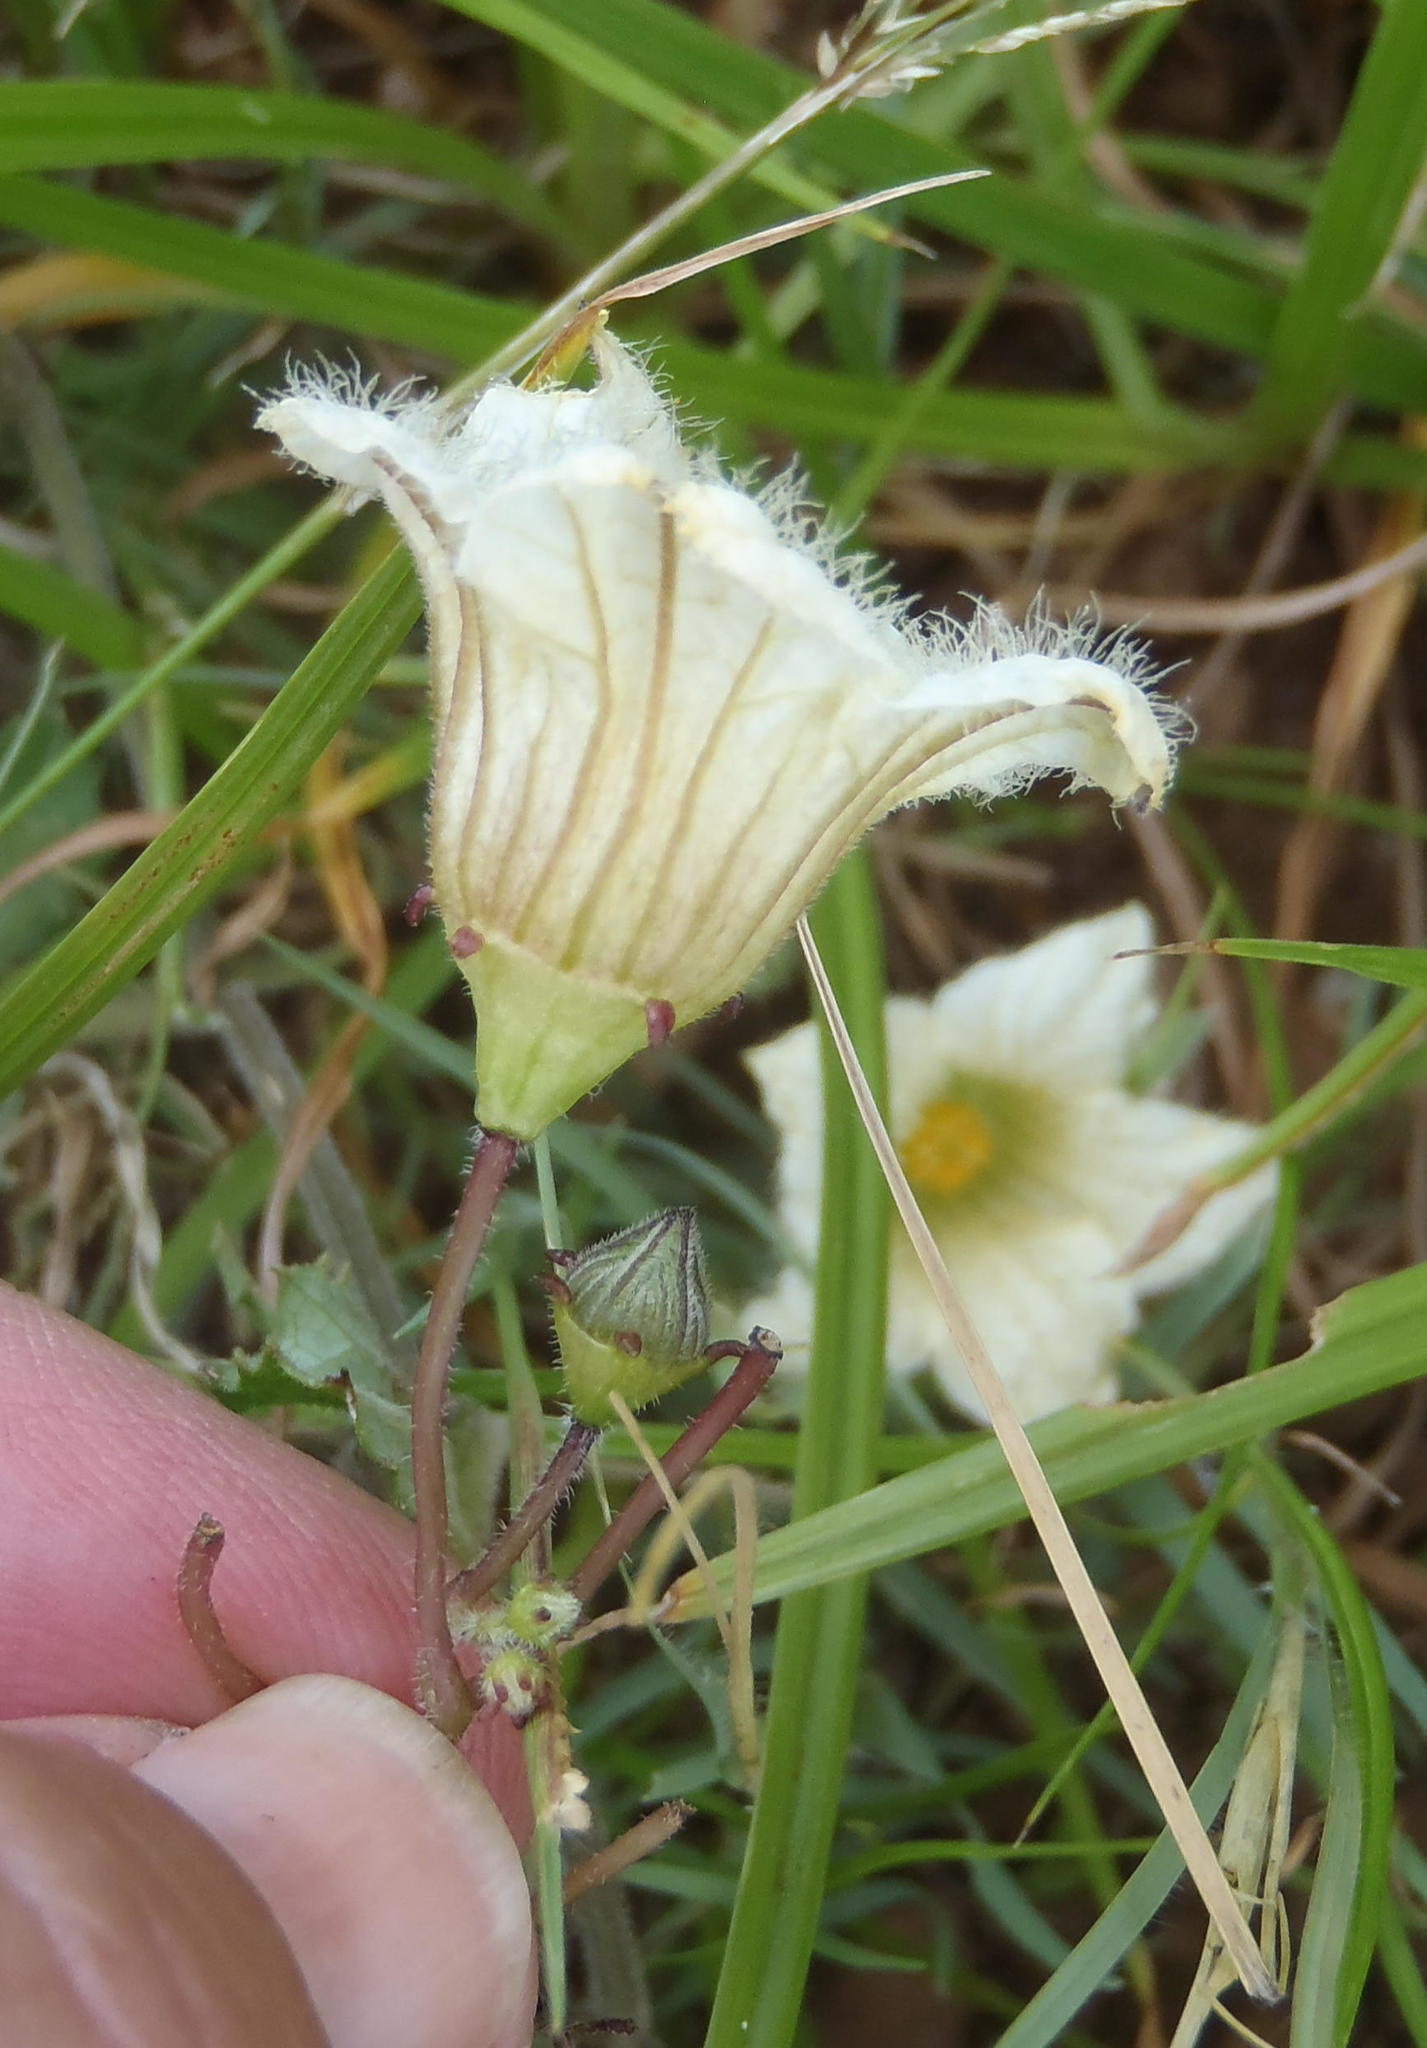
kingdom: Plantae
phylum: Tracheophyta
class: Magnoliopsida
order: Cucurbitales
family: Cucurbitaceae
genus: Coccinia
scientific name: Coccinia adoensis
